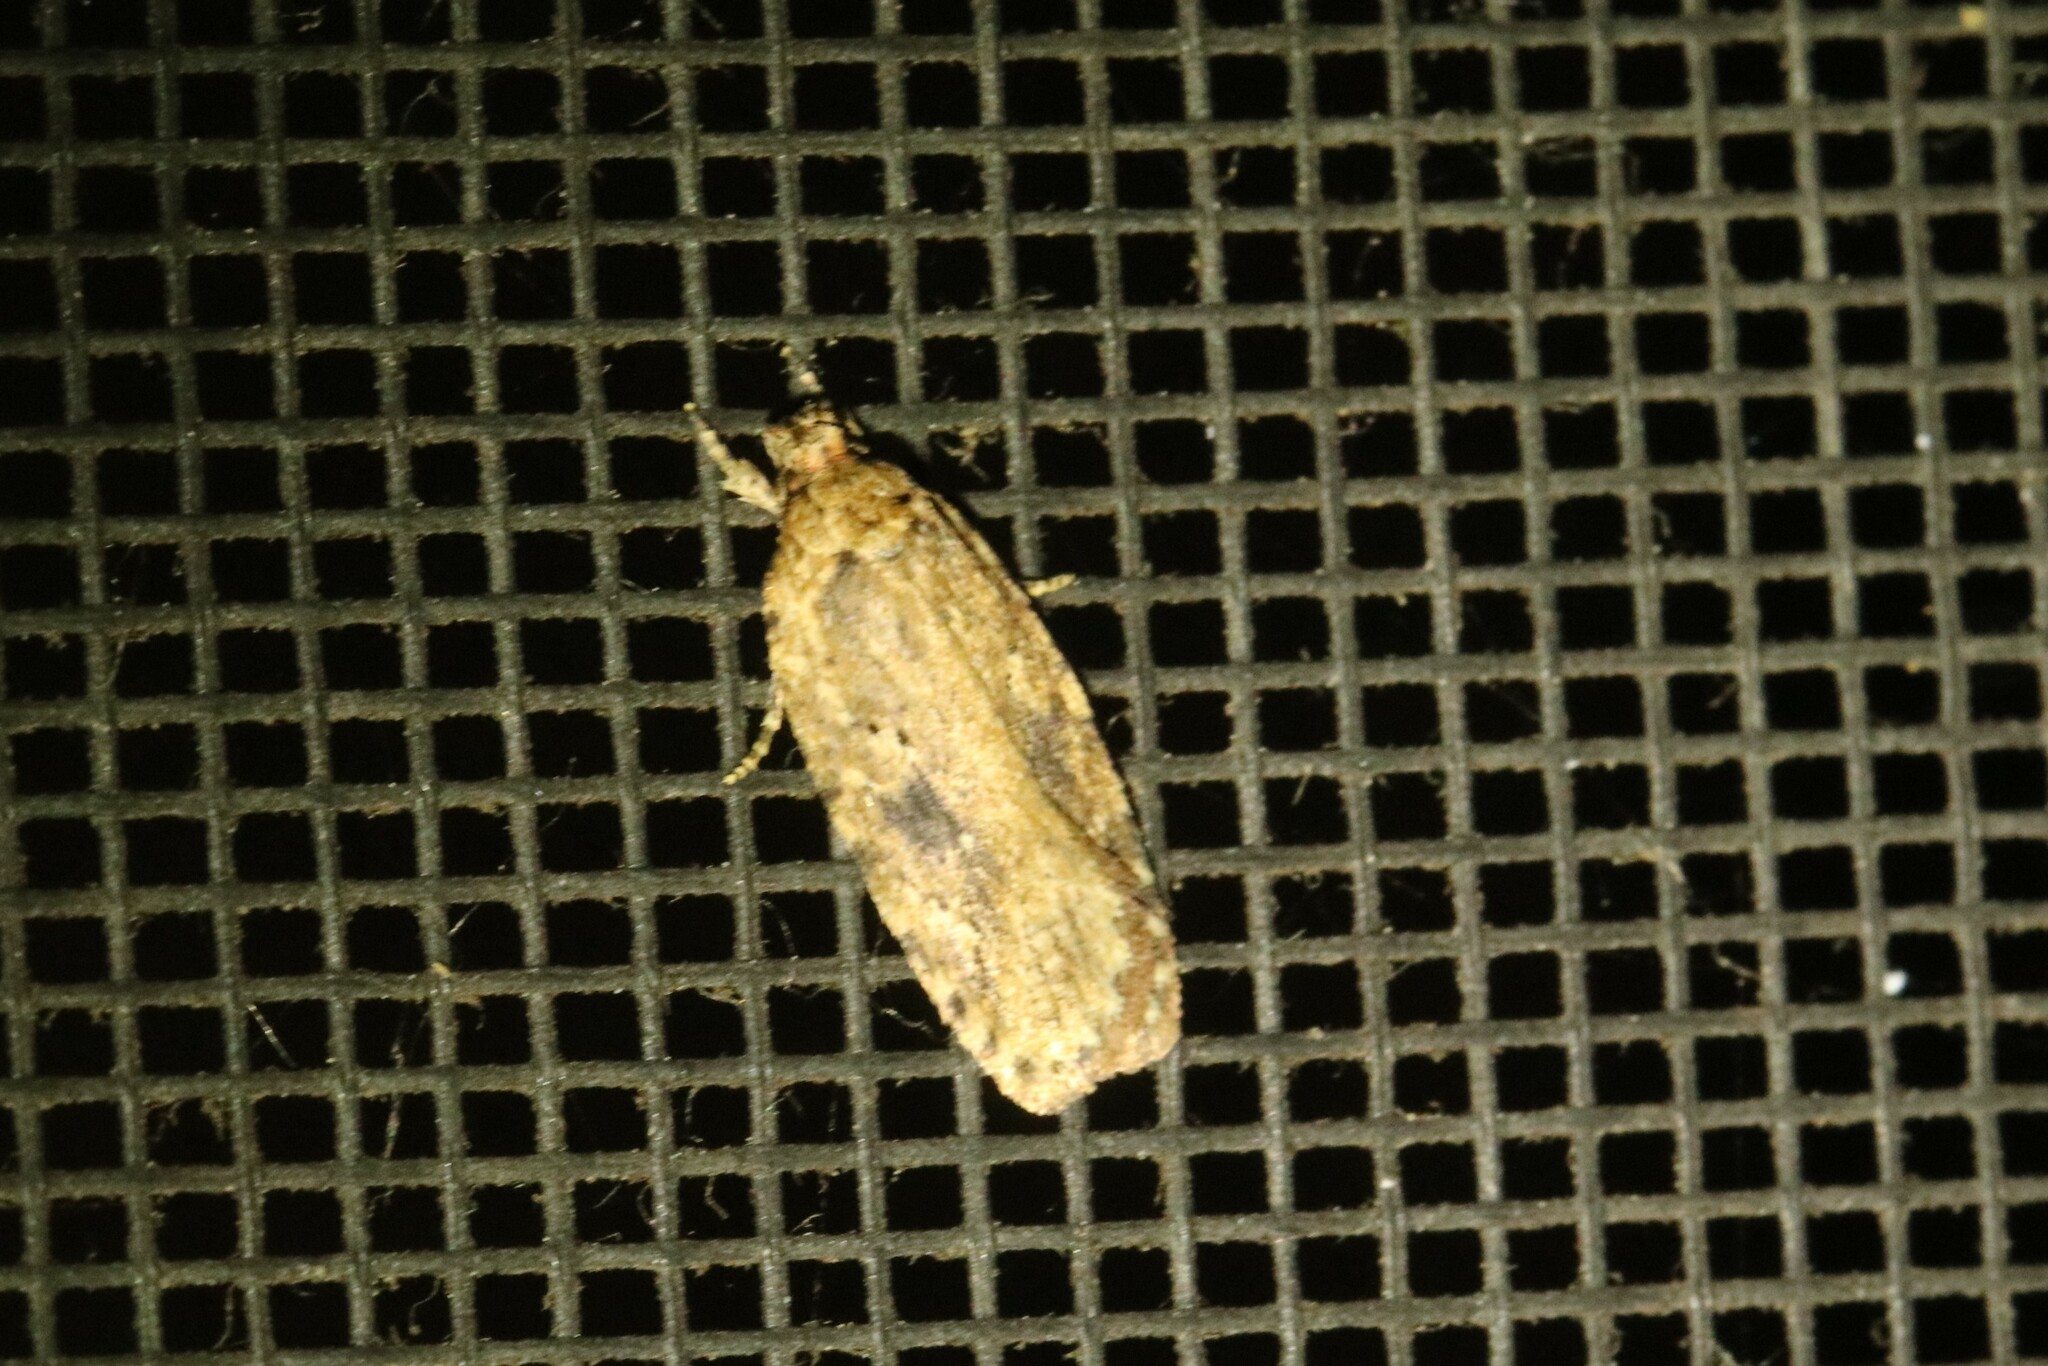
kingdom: Animalia
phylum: Arthropoda
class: Insecta
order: Lepidoptera
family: Depressariidae
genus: Agonopterix
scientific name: Agonopterix pulvipennella
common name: Goldenrod leafffolder
